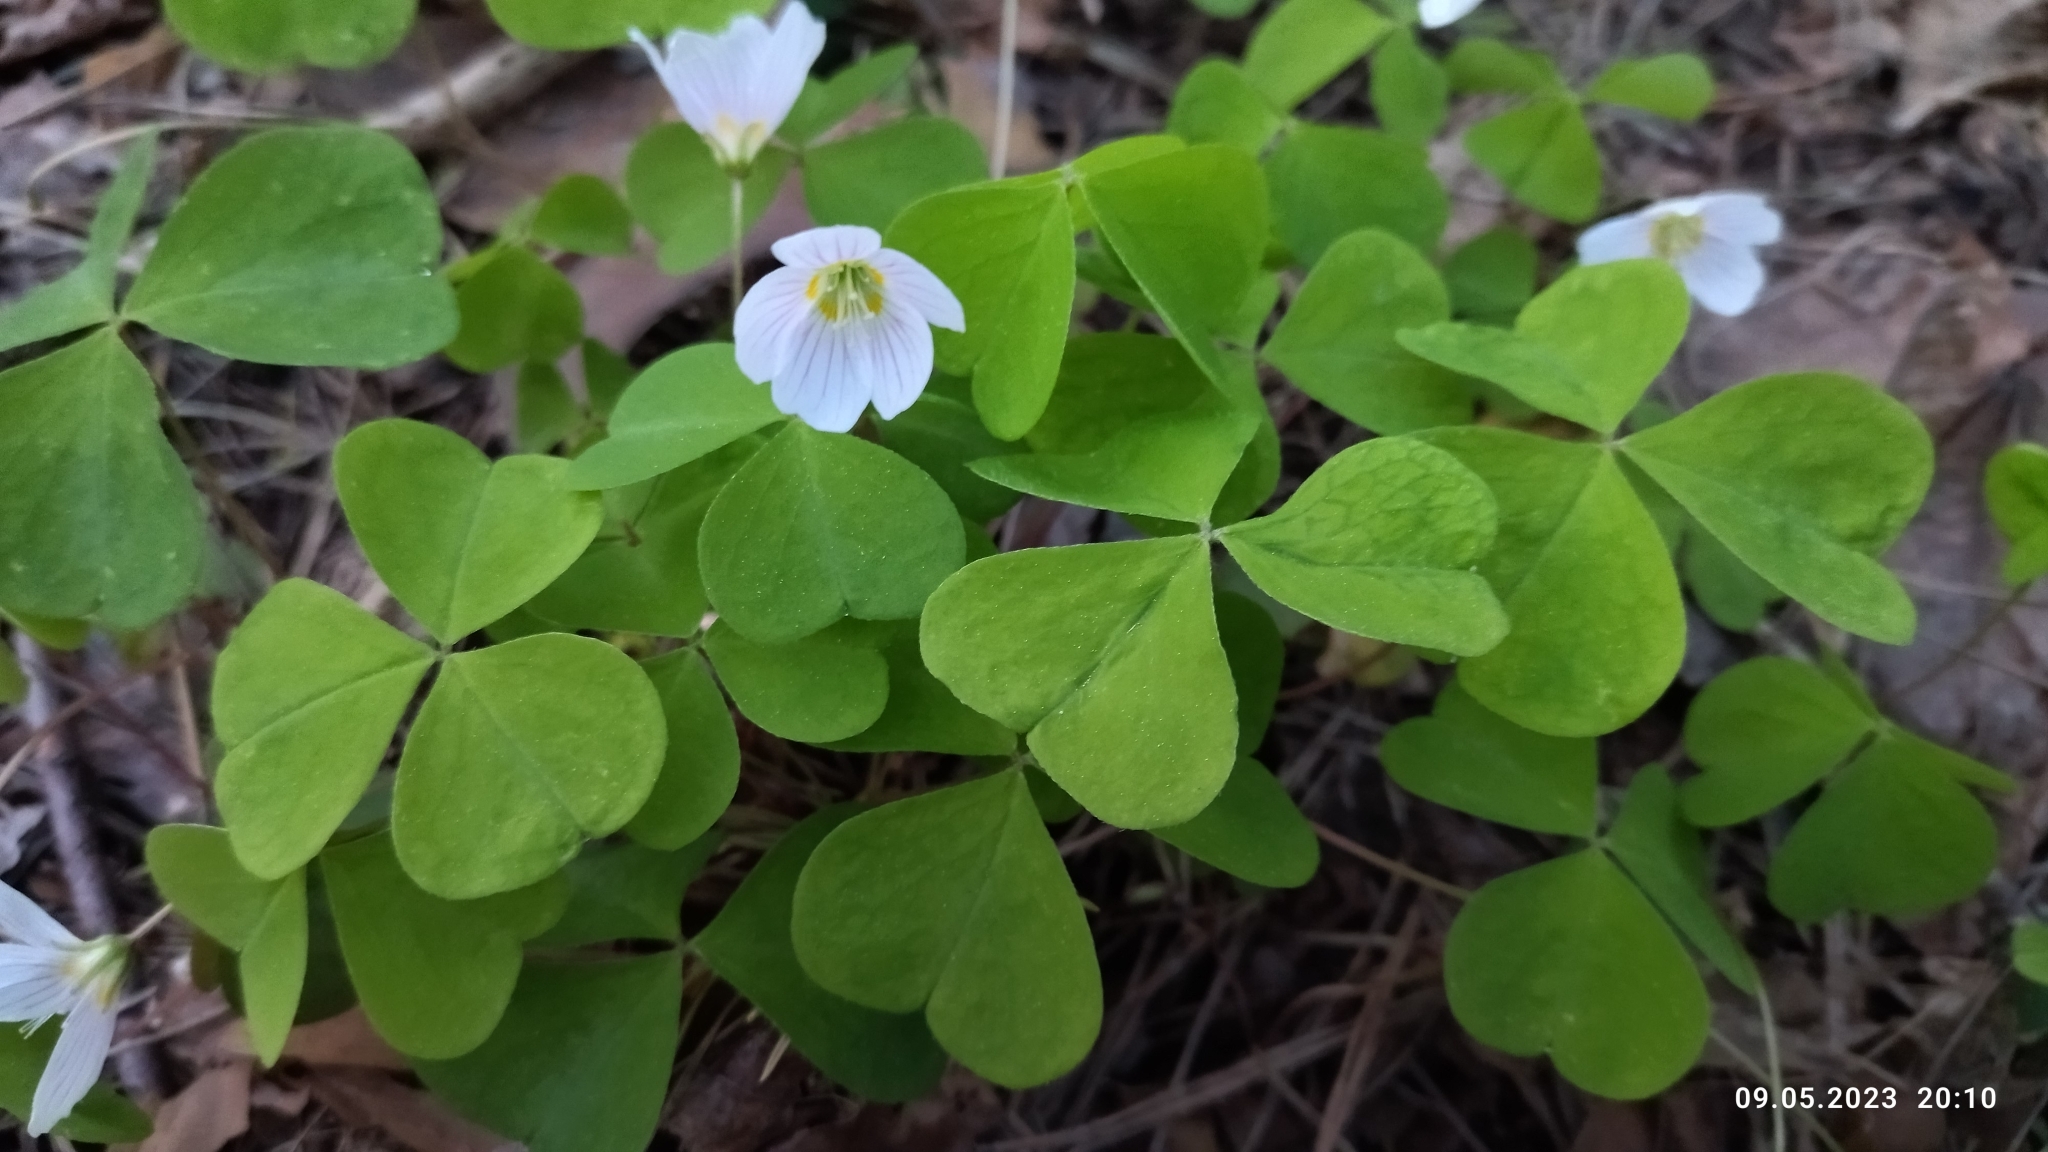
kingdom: Plantae
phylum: Tracheophyta
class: Magnoliopsida
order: Oxalidales
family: Oxalidaceae
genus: Oxalis
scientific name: Oxalis acetosella
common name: Wood-sorrel
